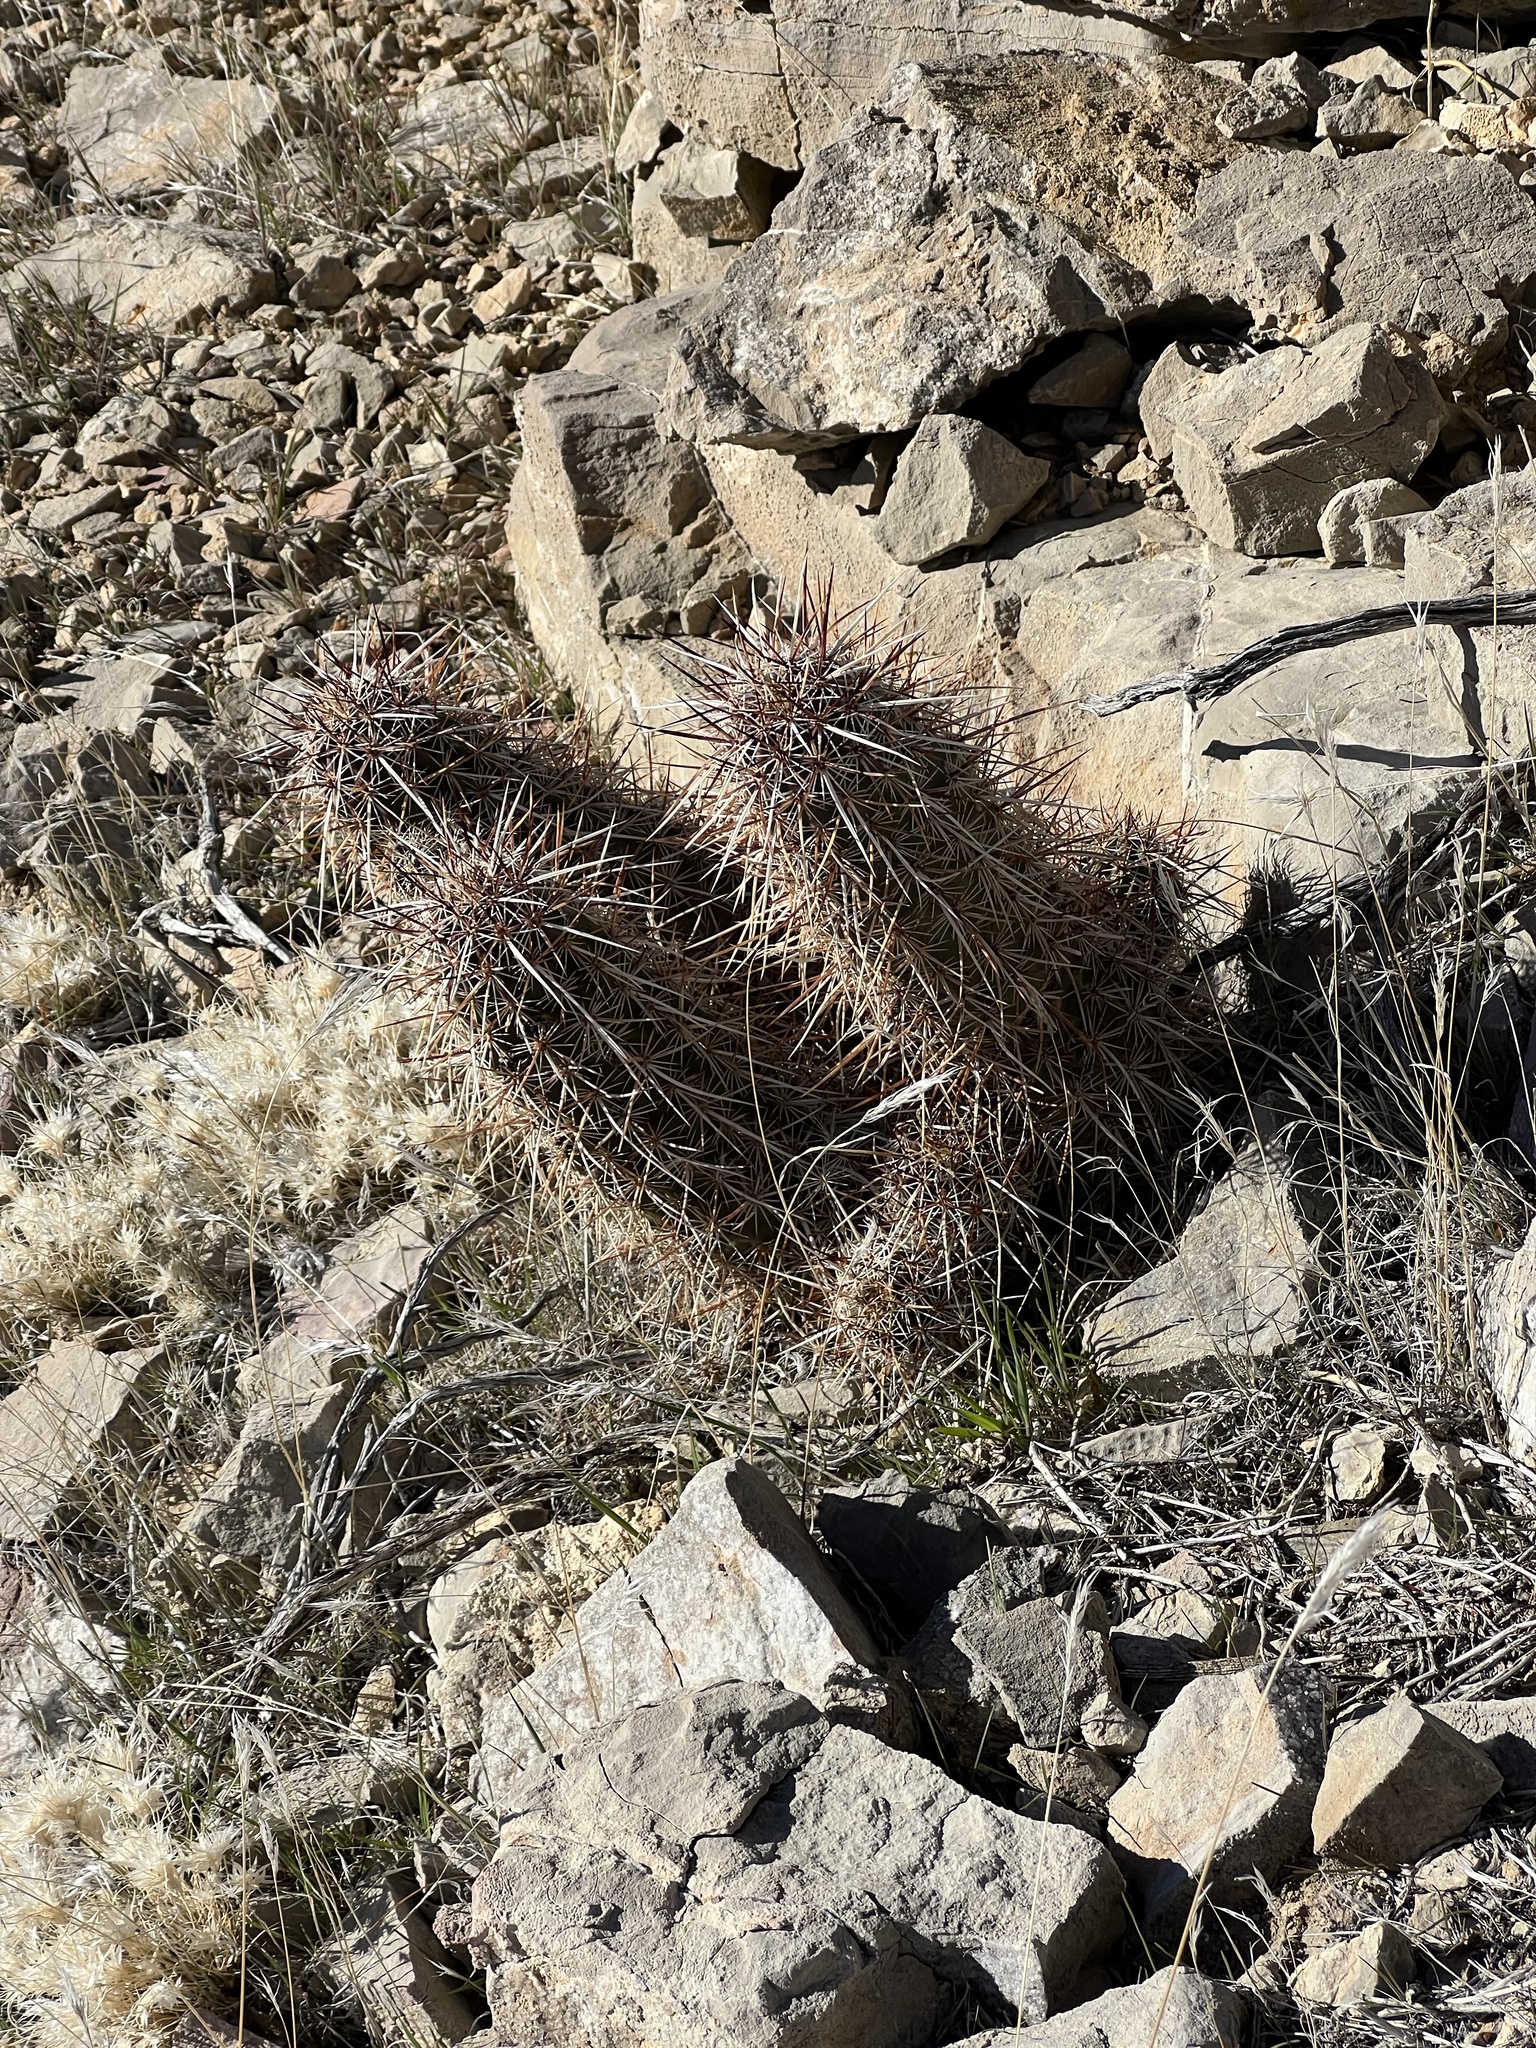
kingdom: Plantae
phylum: Tracheophyta
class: Magnoliopsida
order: Caryophyllales
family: Cactaceae
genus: Echinocereus
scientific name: Echinocereus engelmannii
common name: Engelmann's hedgehog cactus
